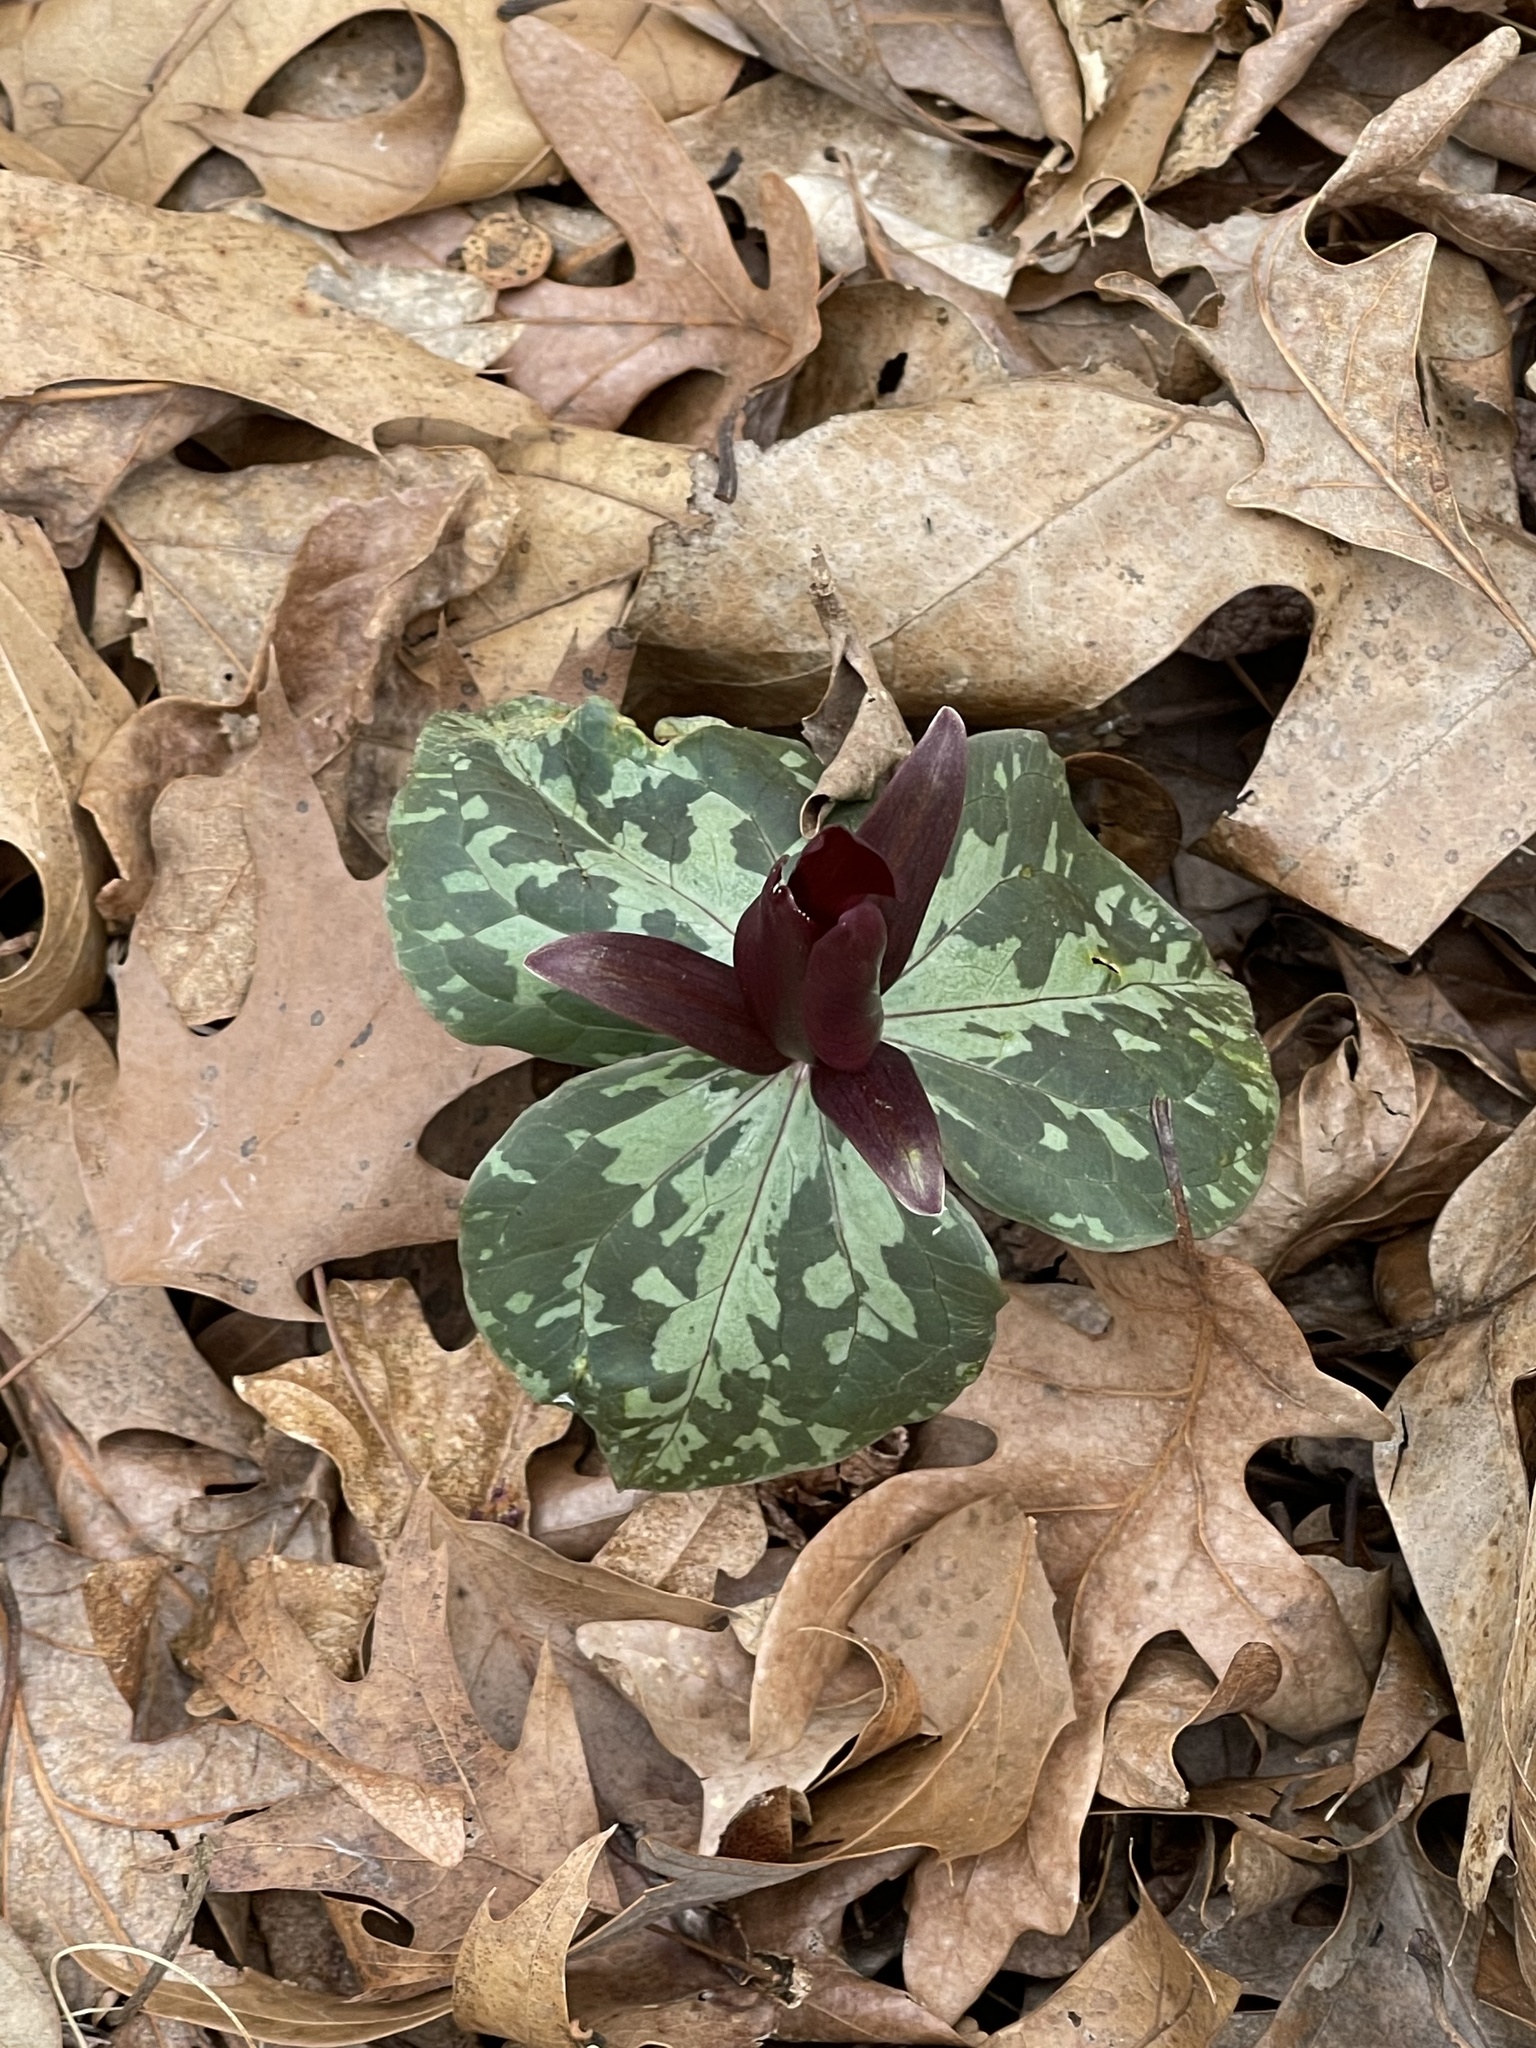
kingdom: Plantae
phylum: Tracheophyta
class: Liliopsida
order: Liliales
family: Melanthiaceae
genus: Trillium
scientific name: Trillium cuneatum
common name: Cuneate trillium
